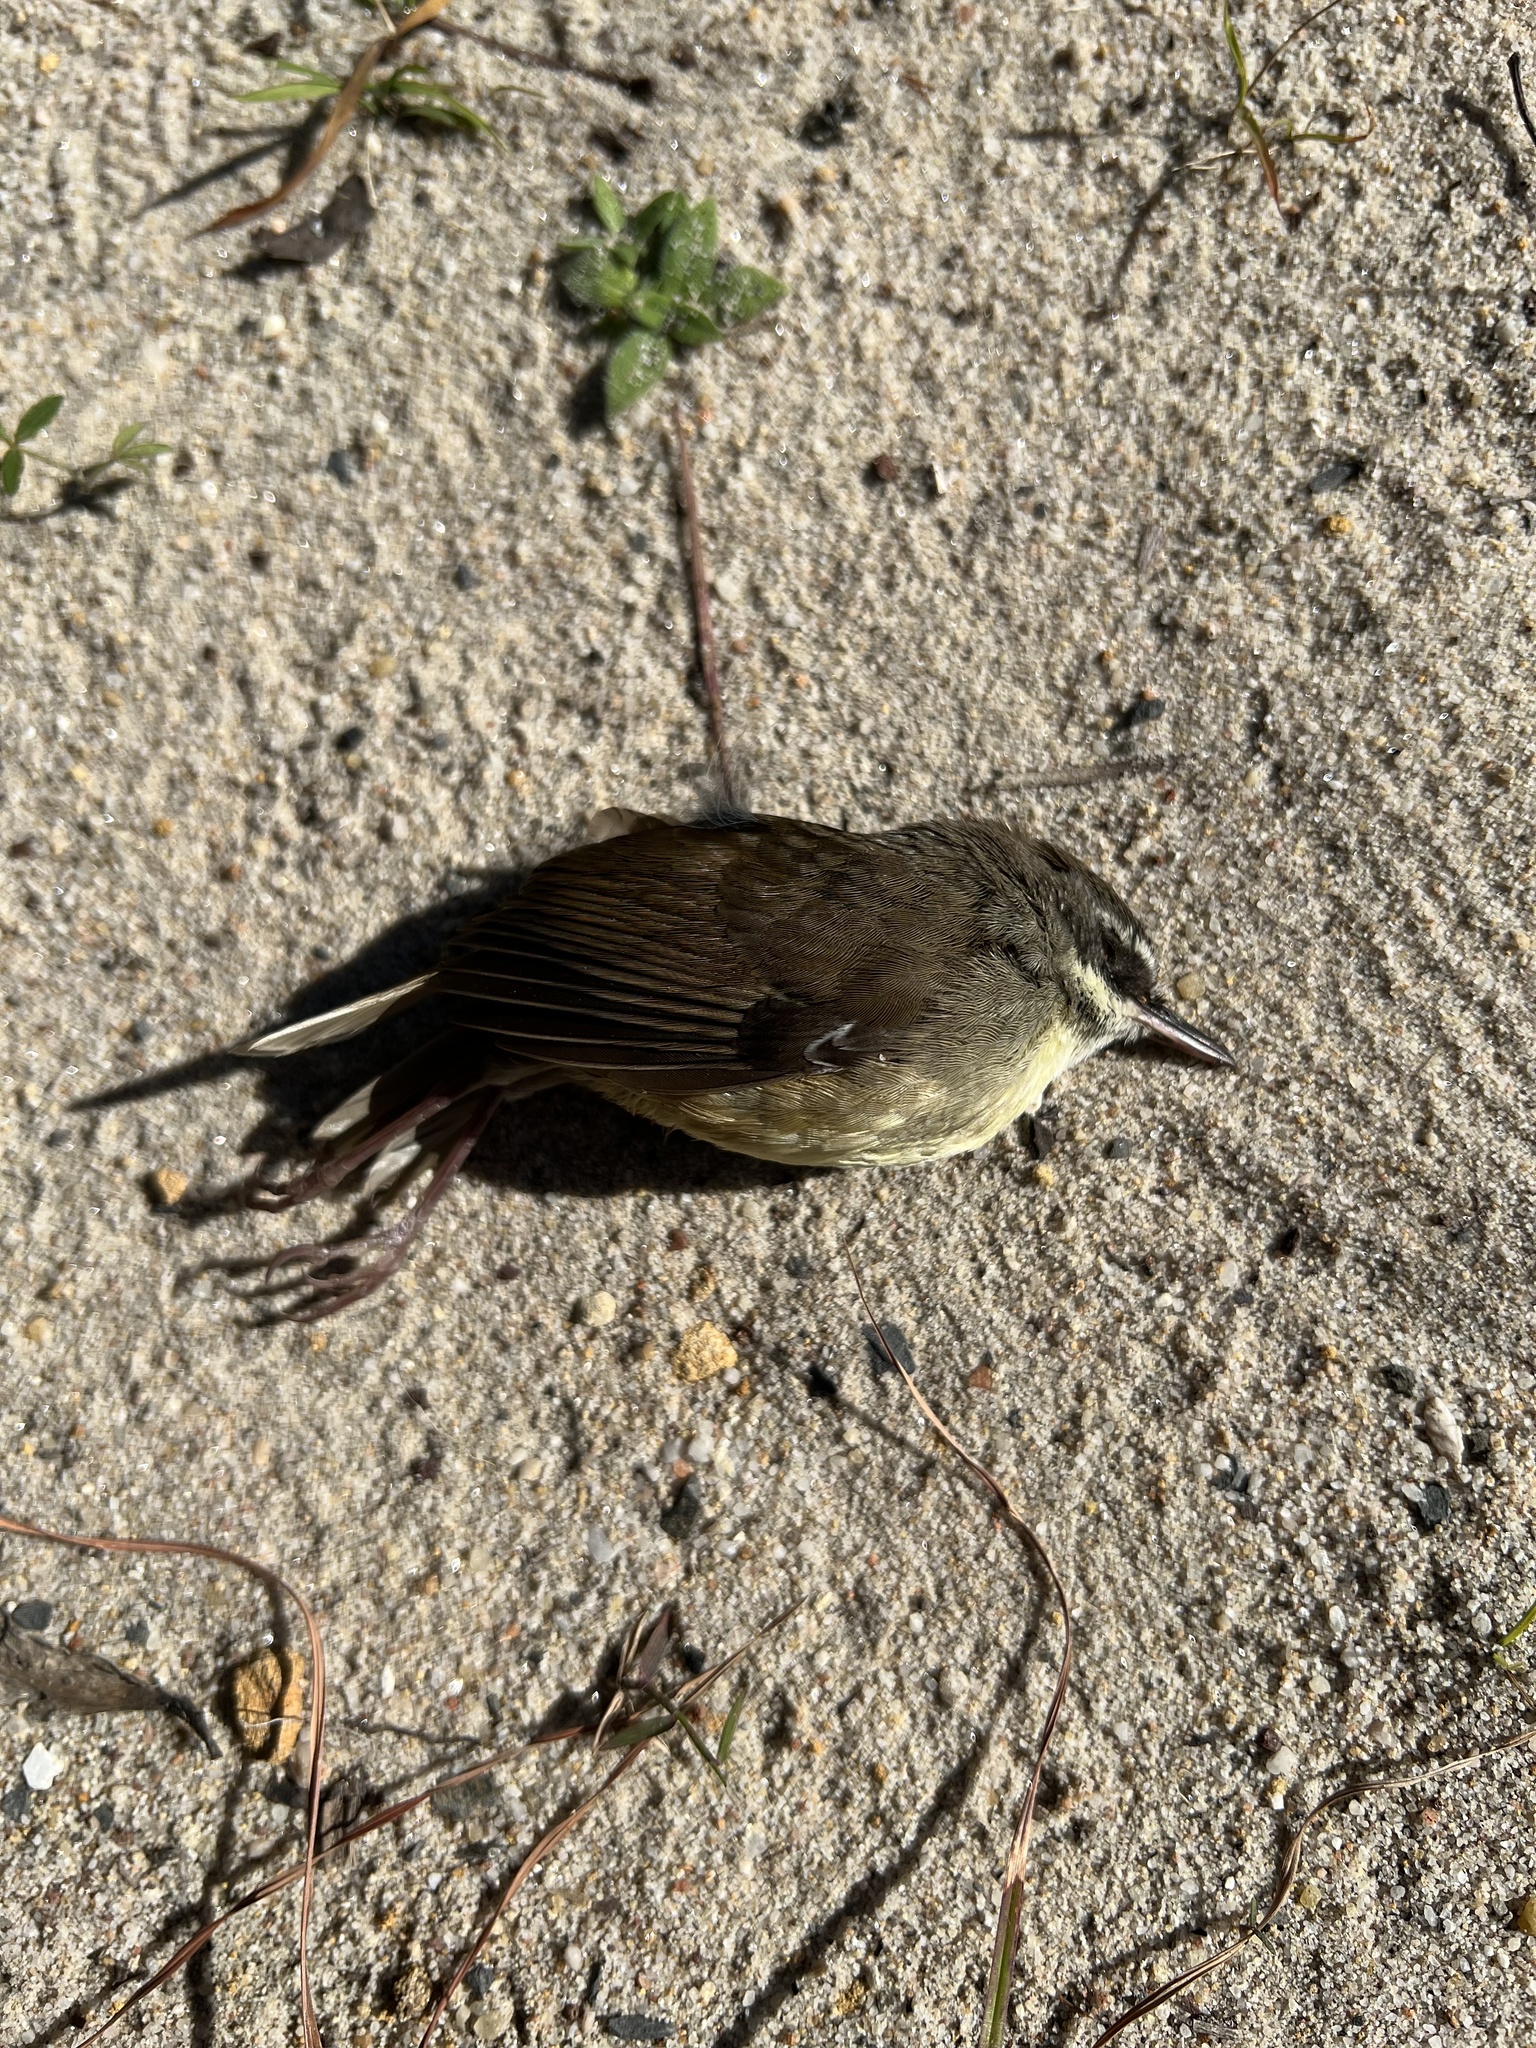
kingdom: Animalia
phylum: Chordata
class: Aves
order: Passeriformes
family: Acanthizidae
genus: Sericornis
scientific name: Sericornis frontalis
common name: White-browed scrubwren
